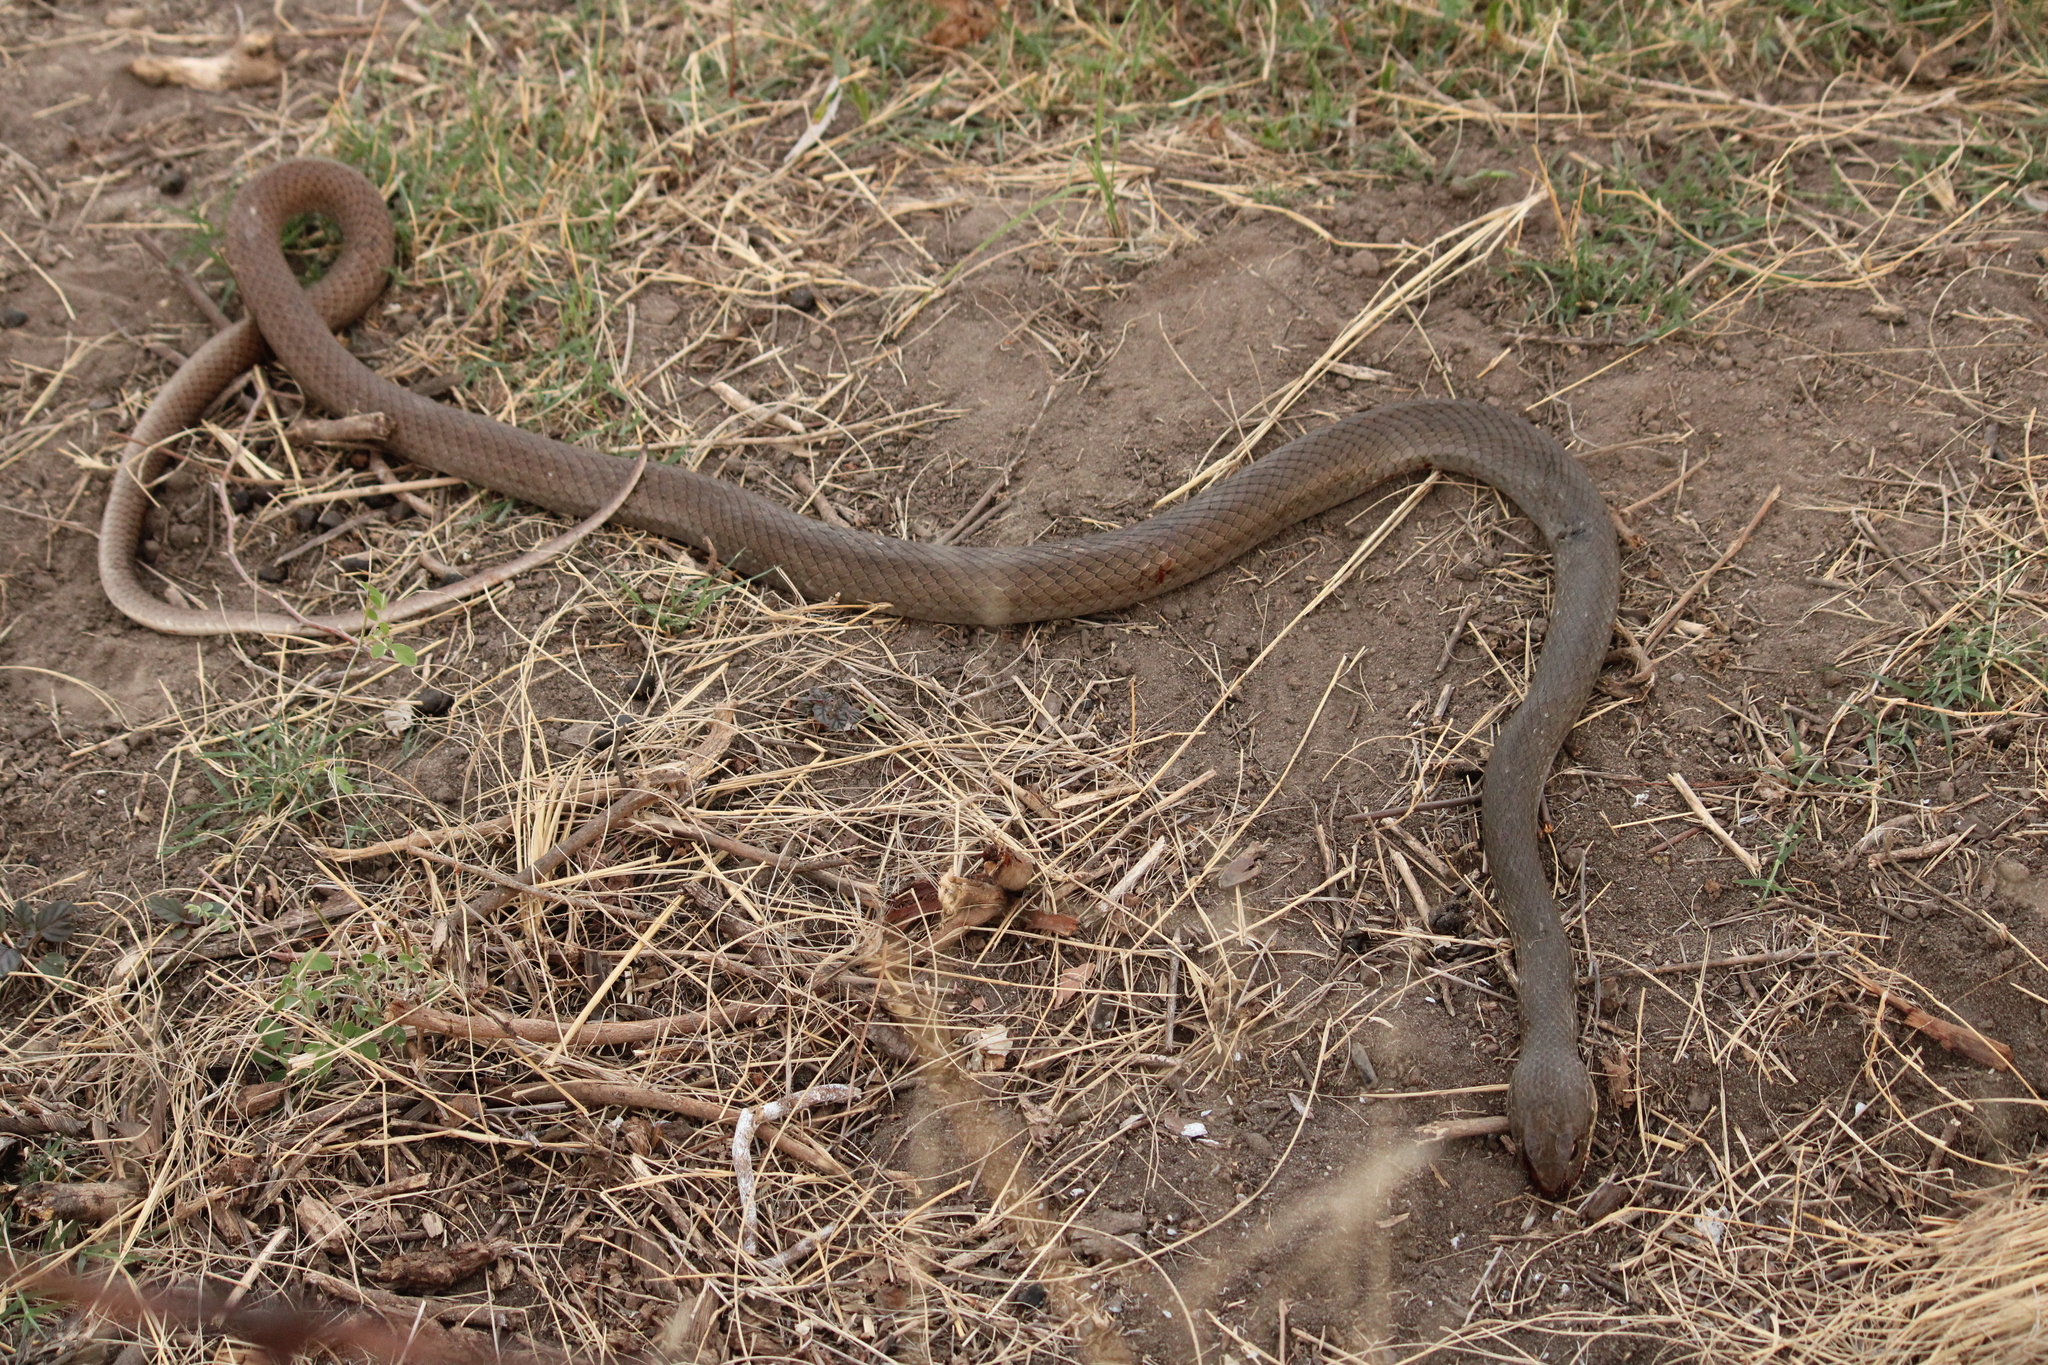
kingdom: Animalia
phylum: Chordata
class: Squamata
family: Colubridae
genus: Masticophis
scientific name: Masticophis mentovarius
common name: Neotropical whip snake
